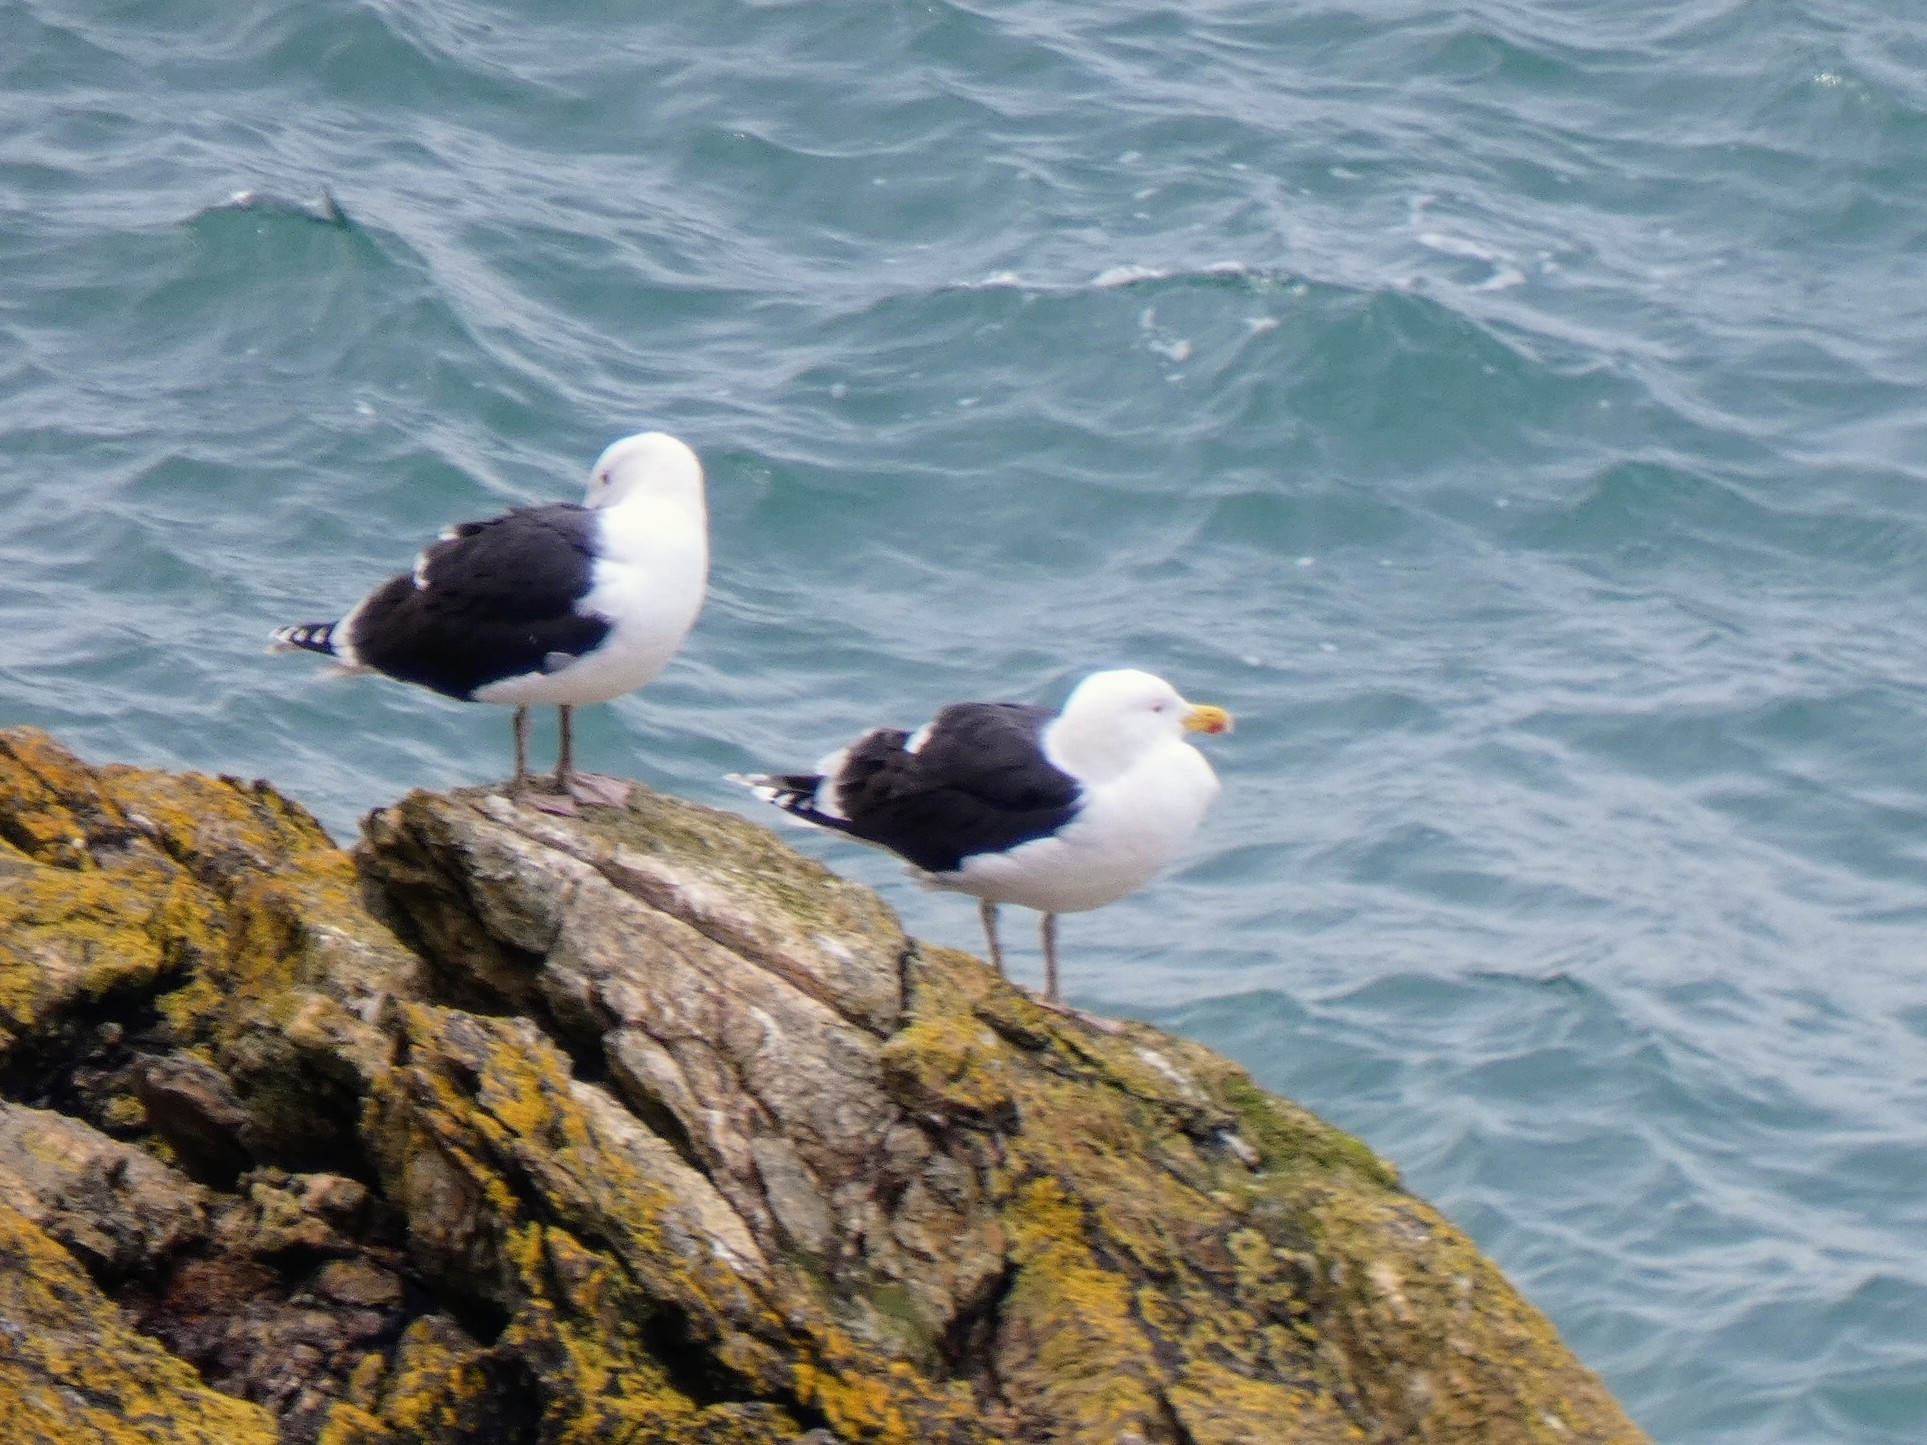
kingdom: Animalia
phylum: Chordata
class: Aves
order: Charadriiformes
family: Laridae
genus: Larus
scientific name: Larus marinus
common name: Great black-backed gull
